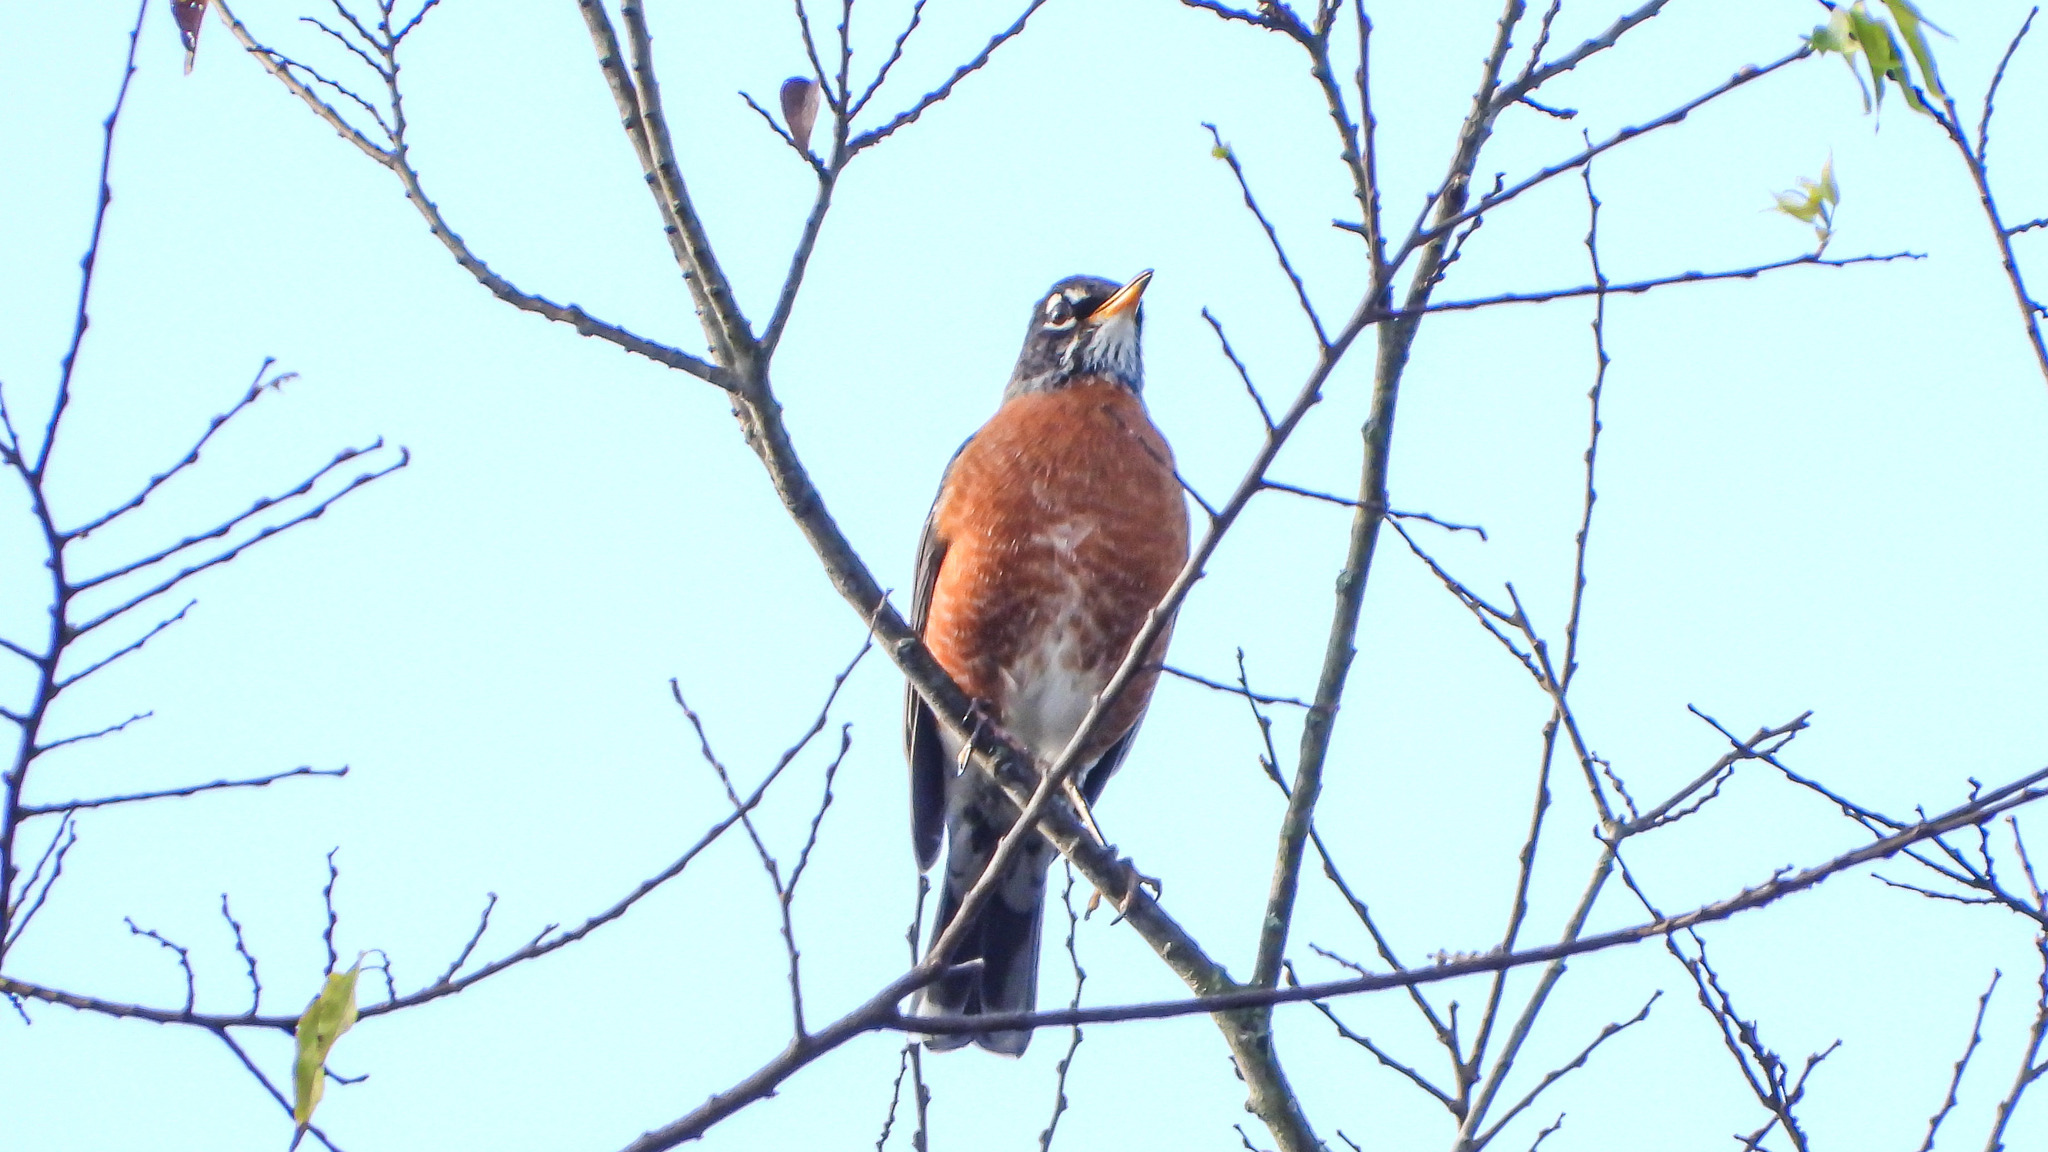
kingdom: Animalia
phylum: Chordata
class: Aves
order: Passeriformes
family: Turdidae
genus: Turdus
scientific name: Turdus migratorius
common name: American robin
